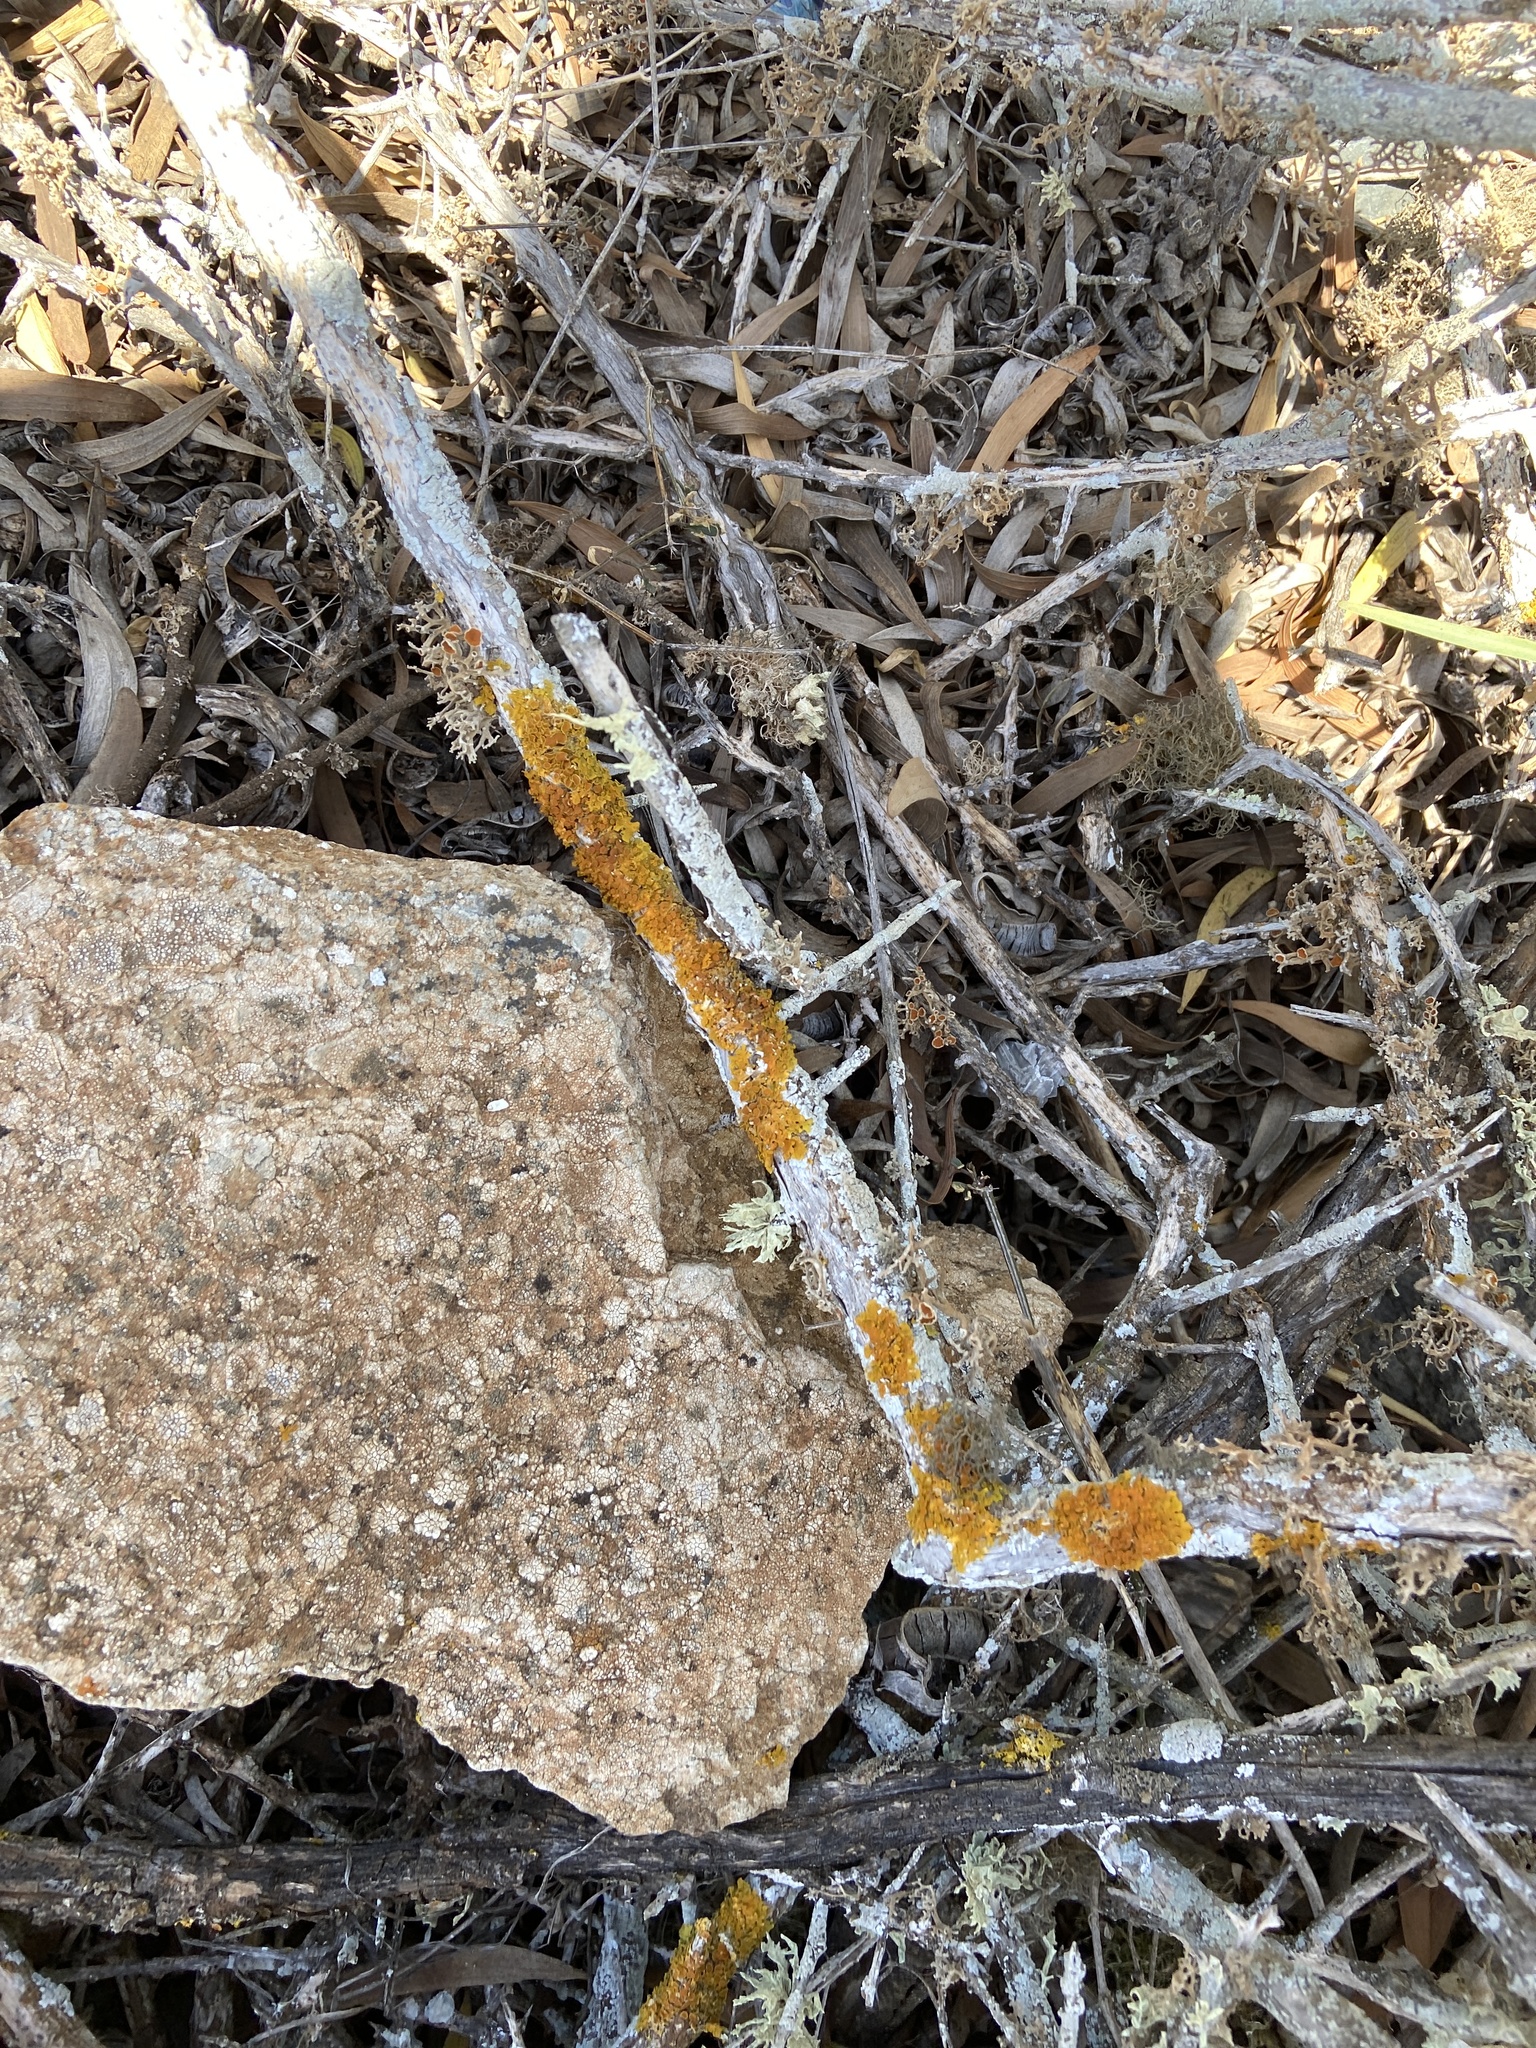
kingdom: Fungi
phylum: Ascomycota
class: Lecanoromycetes
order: Teloschistales
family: Teloschistaceae
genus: Xanthoria
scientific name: Xanthoria parietina
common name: Common orange lichen
